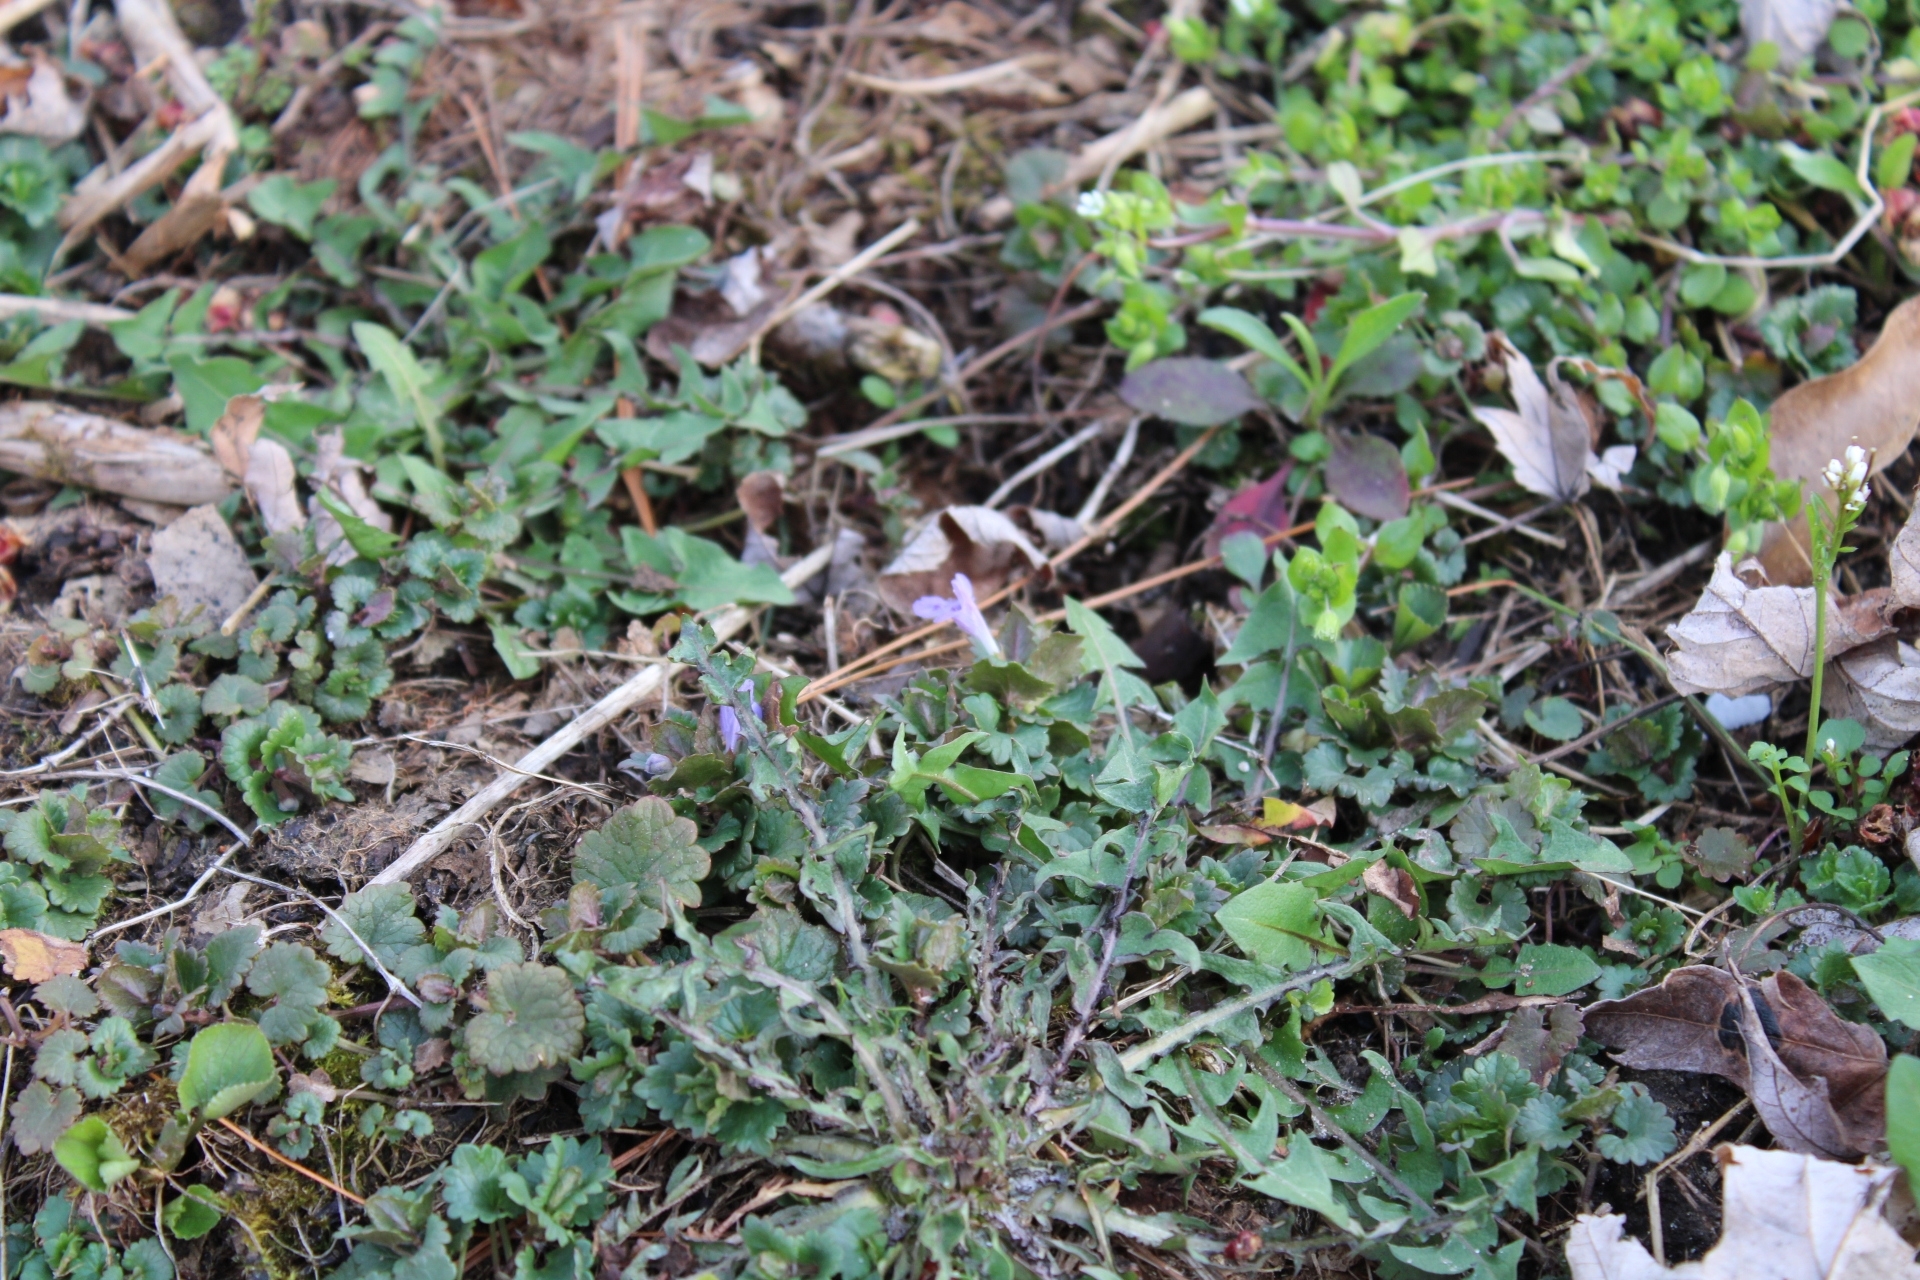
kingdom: Plantae
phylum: Tracheophyta
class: Magnoliopsida
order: Lamiales
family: Lamiaceae
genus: Glechoma
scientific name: Glechoma hederacea
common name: Ground ivy
